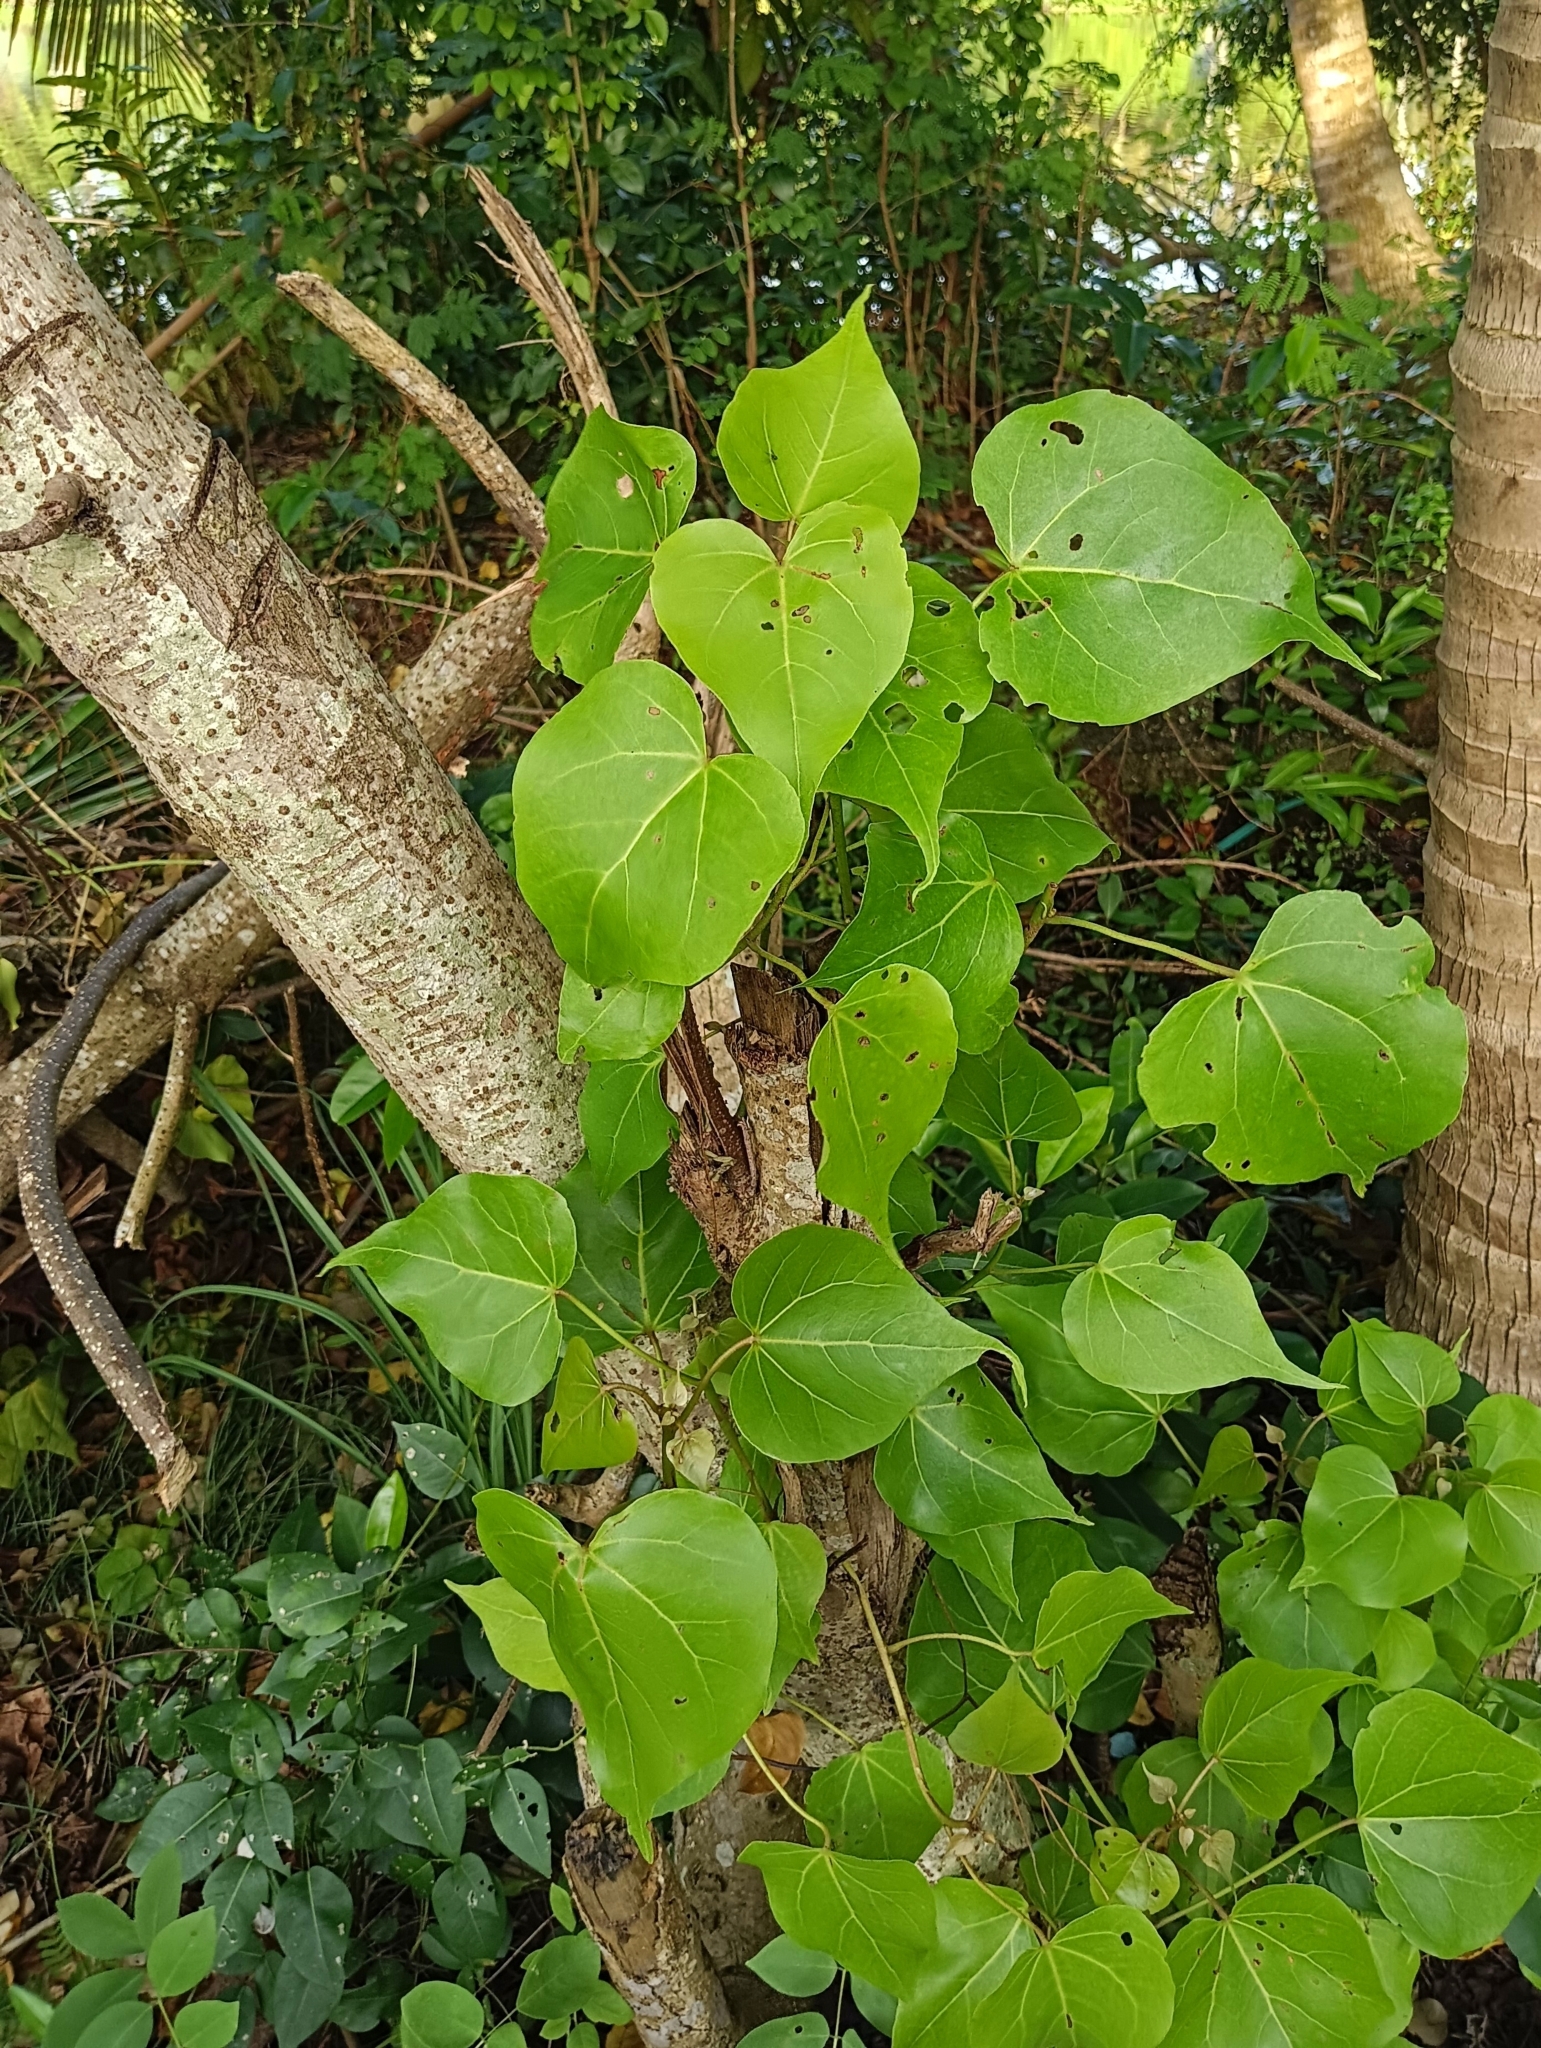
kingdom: Plantae
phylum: Tracheophyta
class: Magnoliopsida
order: Malvales
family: Malvaceae
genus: Thespesia
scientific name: Thespesia populnea
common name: Seaside mahoe
